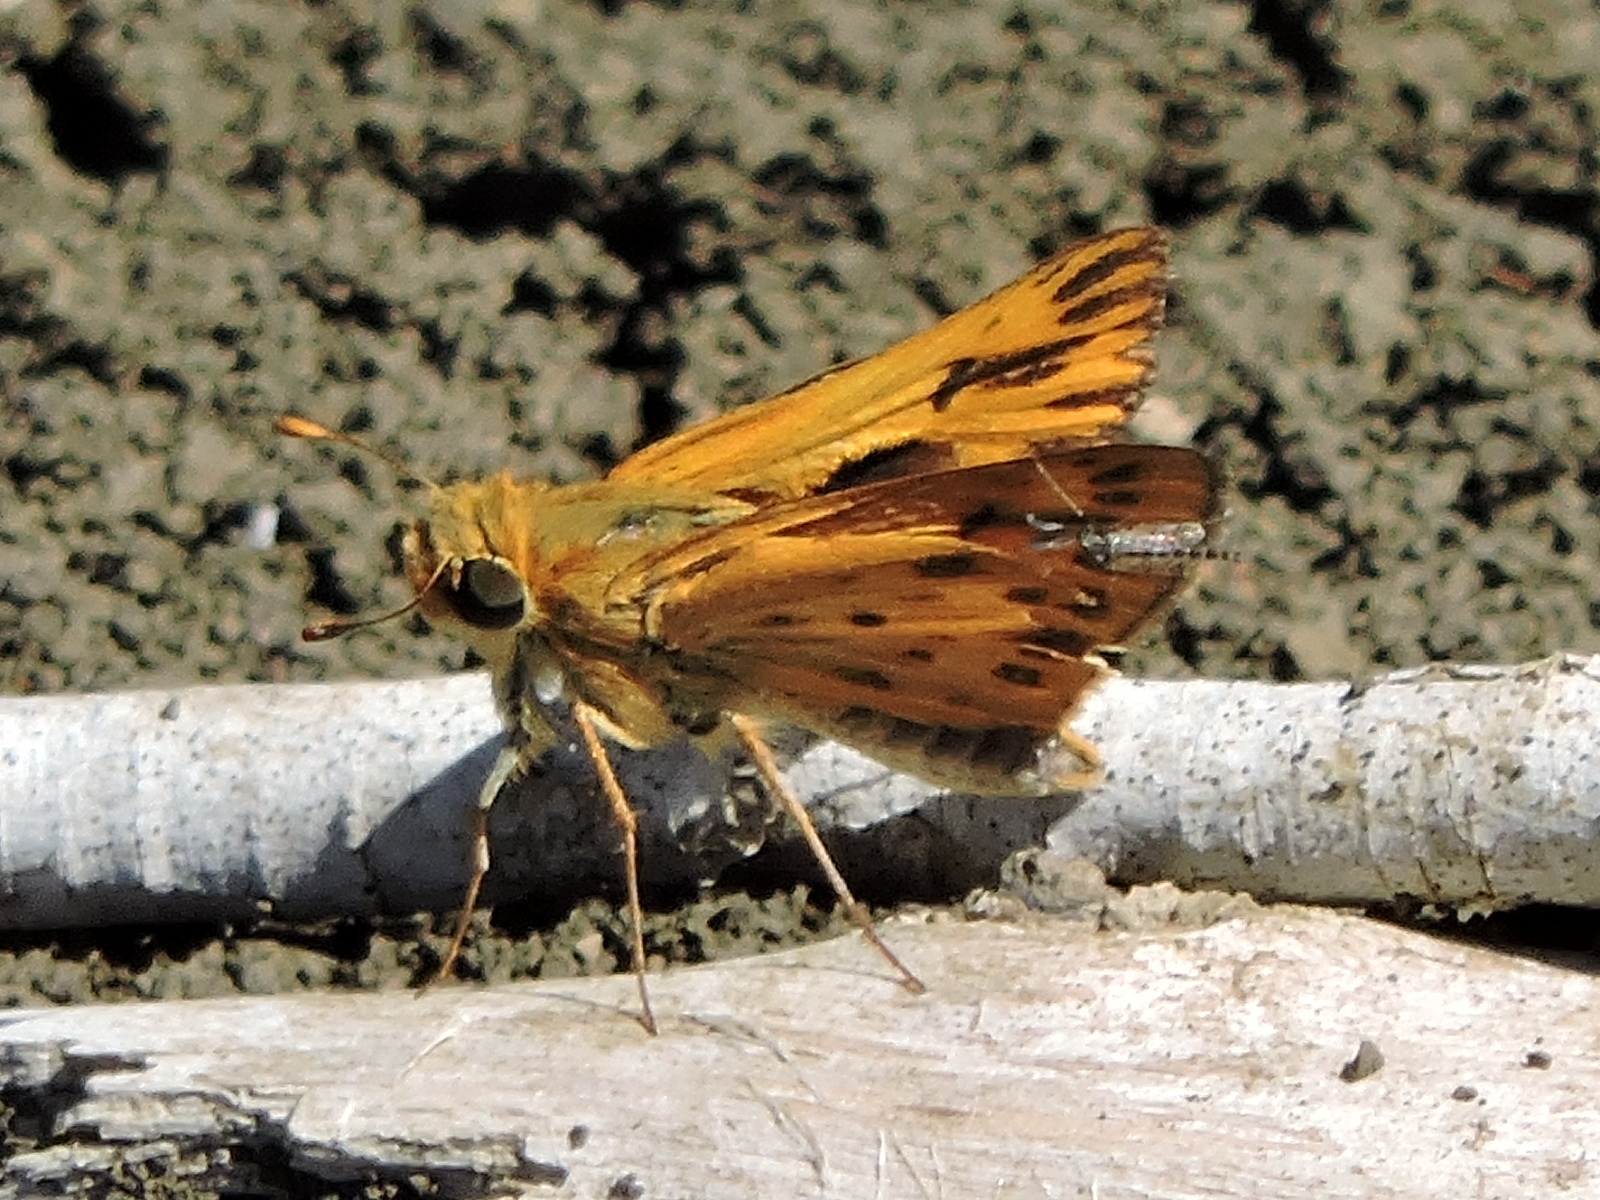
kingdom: Animalia
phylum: Arthropoda
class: Insecta
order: Lepidoptera
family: Hesperiidae
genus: Hylephila
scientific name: Hylephila phyleus
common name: Fiery skipper
